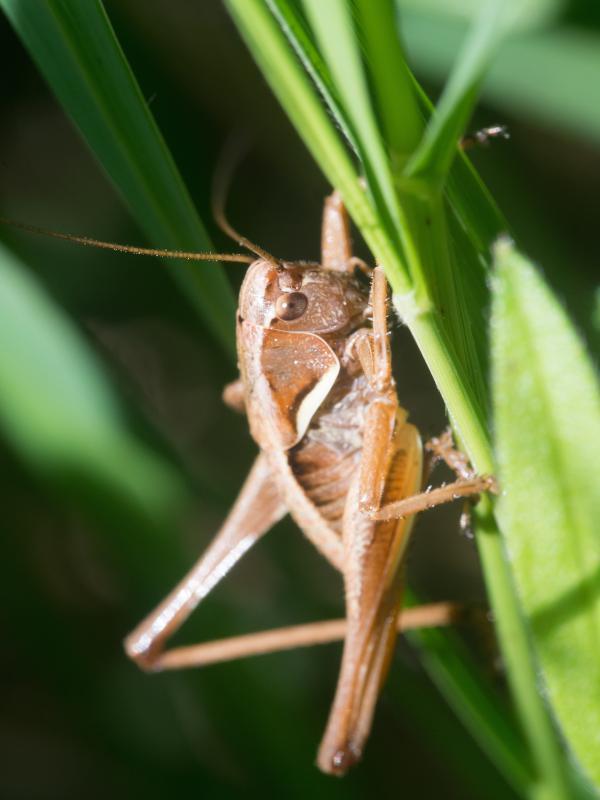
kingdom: Animalia
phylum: Arthropoda
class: Insecta
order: Orthoptera
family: Tettigoniidae
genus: Pholidoptera
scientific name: Pholidoptera aptera
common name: Alpine dark bush-cricket
